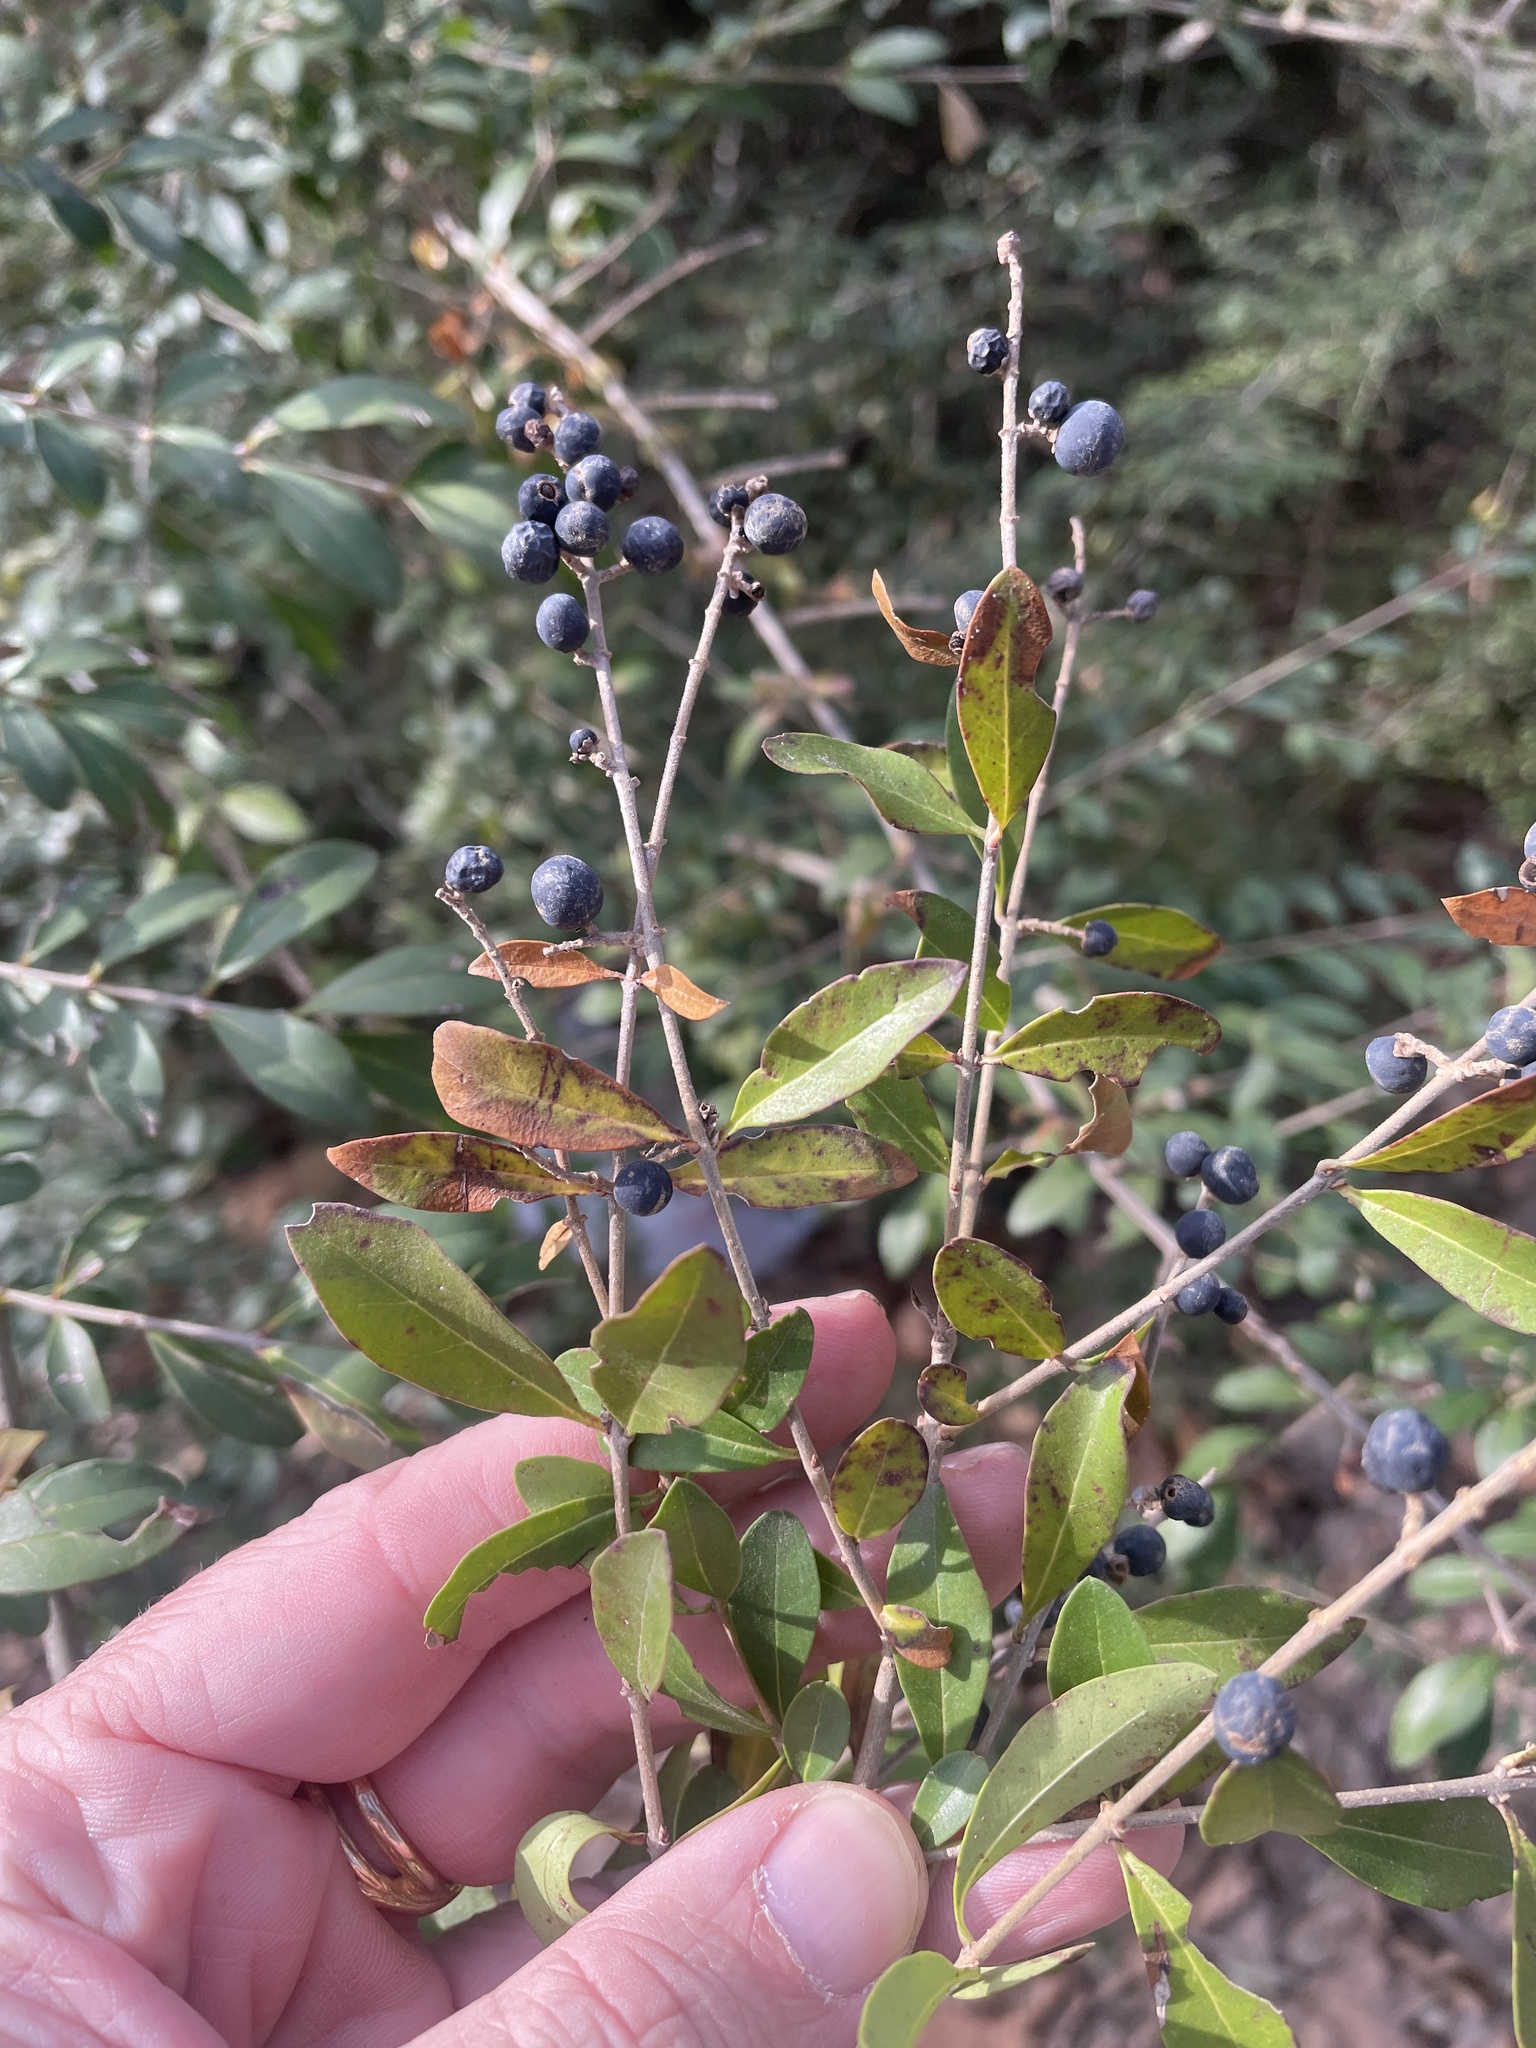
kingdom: Plantae
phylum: Tracheophyta
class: Magnoliopsida
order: Lamiales
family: Oleaceae
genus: Ligustrum
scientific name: Ligustrum quihoui
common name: Waxyleaf privet
